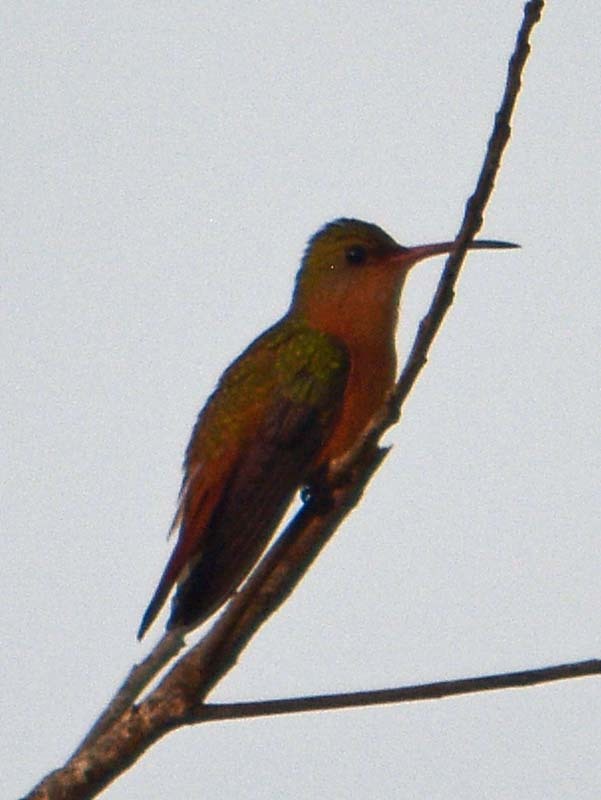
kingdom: Animalia
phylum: Chordata
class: Aves
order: Apodiformes
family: Trochilidae
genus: Amazilia
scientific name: Amazilia rutila
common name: Cinnamon hummingbird
